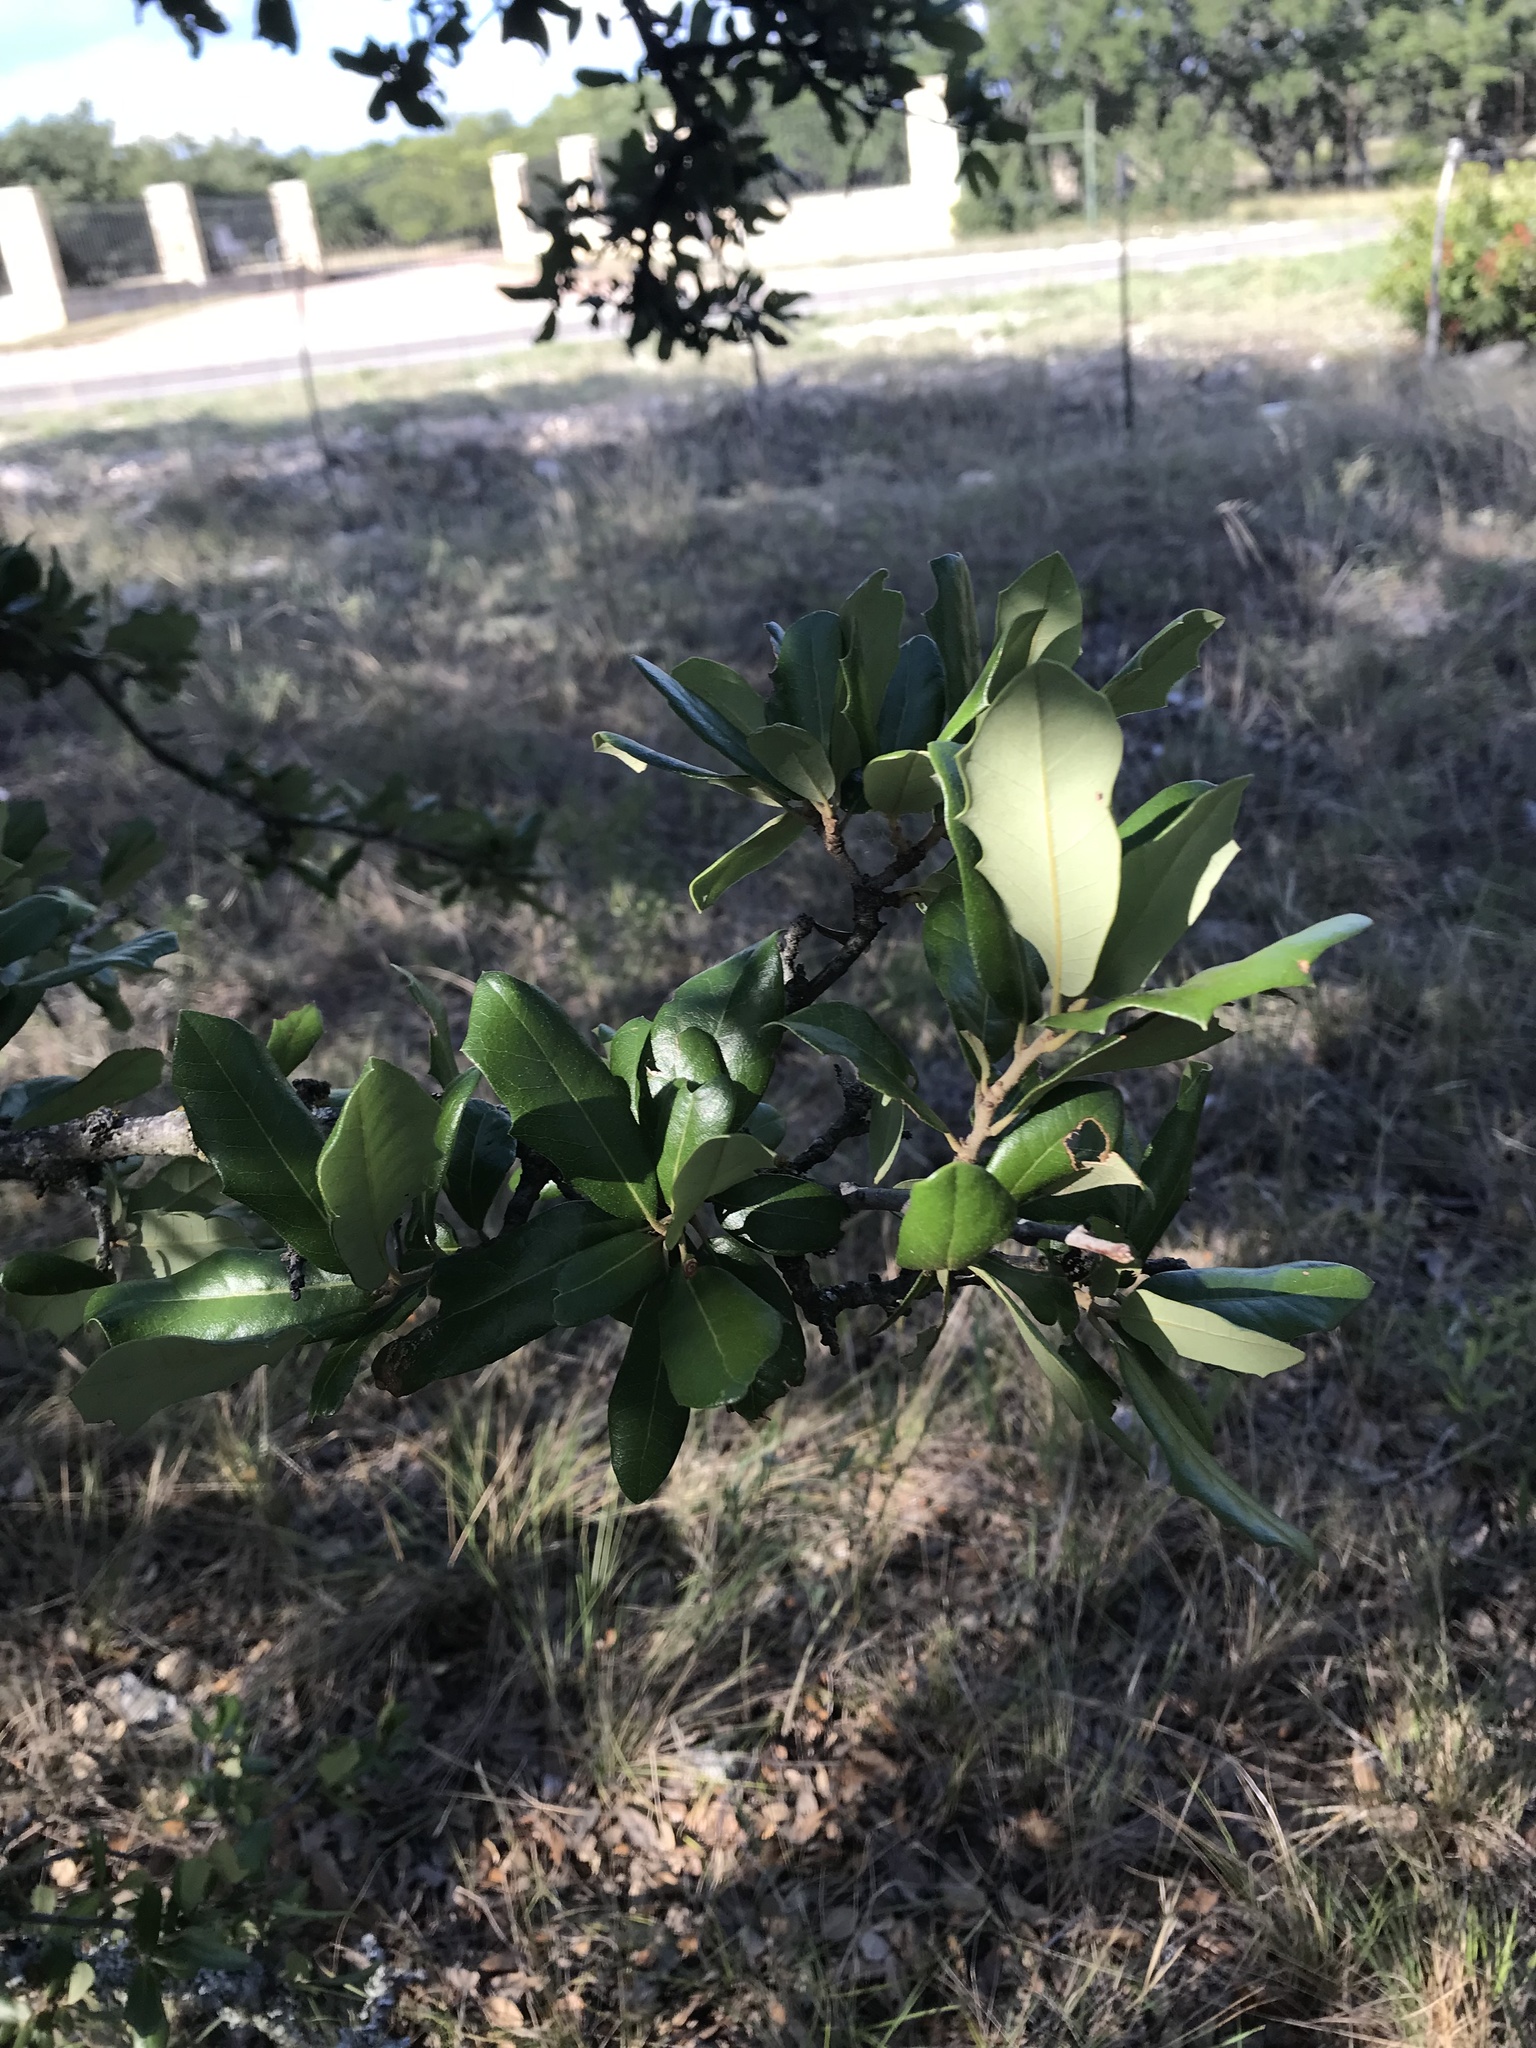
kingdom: Plantae
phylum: Tracheophyta
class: Magnoliopsida
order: Fagales
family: Fagaceae
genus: Quercus
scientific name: Quercus fusiformis
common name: Texas live oak
